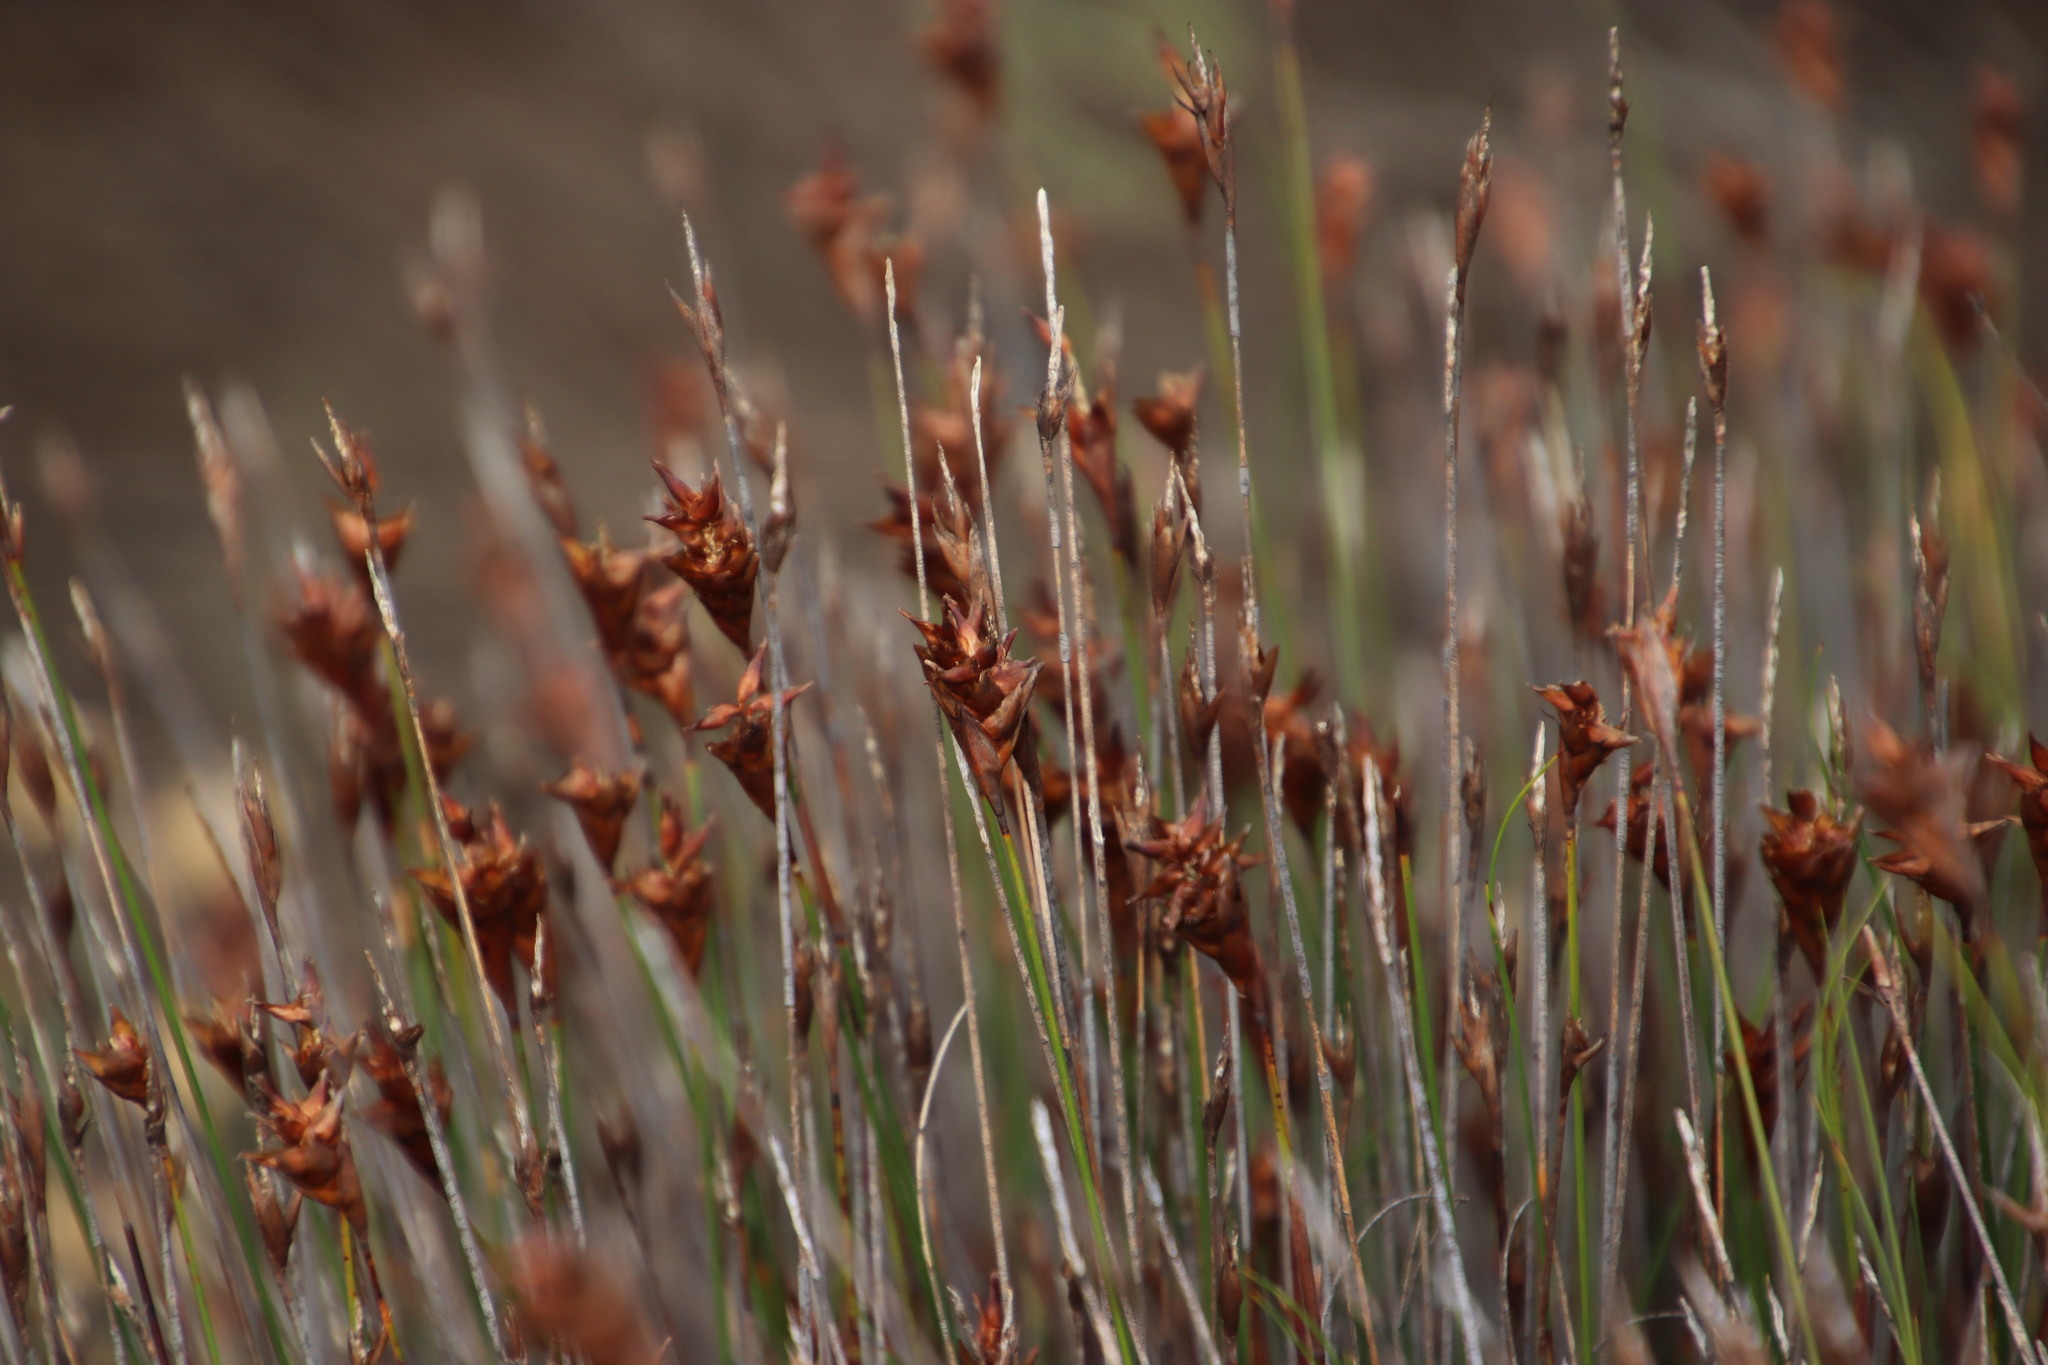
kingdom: Plantae
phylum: Tracheophyta
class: Liliopsida
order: Poales
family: Restionaceae
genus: Staberoha
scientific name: Staberoha distachyos
